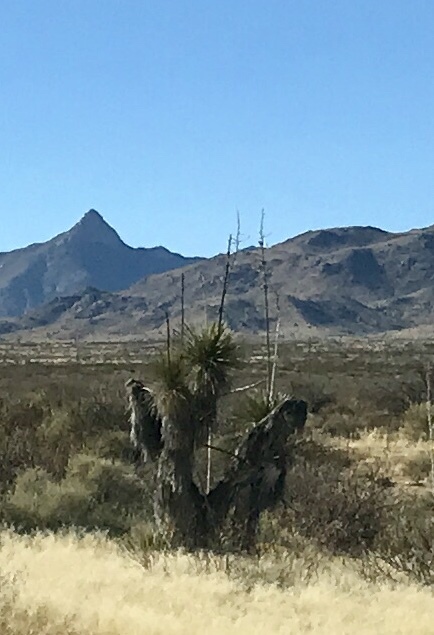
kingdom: Plantae
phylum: Tracheophyta
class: Liliopsida
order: Asparagales
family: Asparagaceae
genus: Yucca
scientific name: Yucca elata
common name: Palmella
